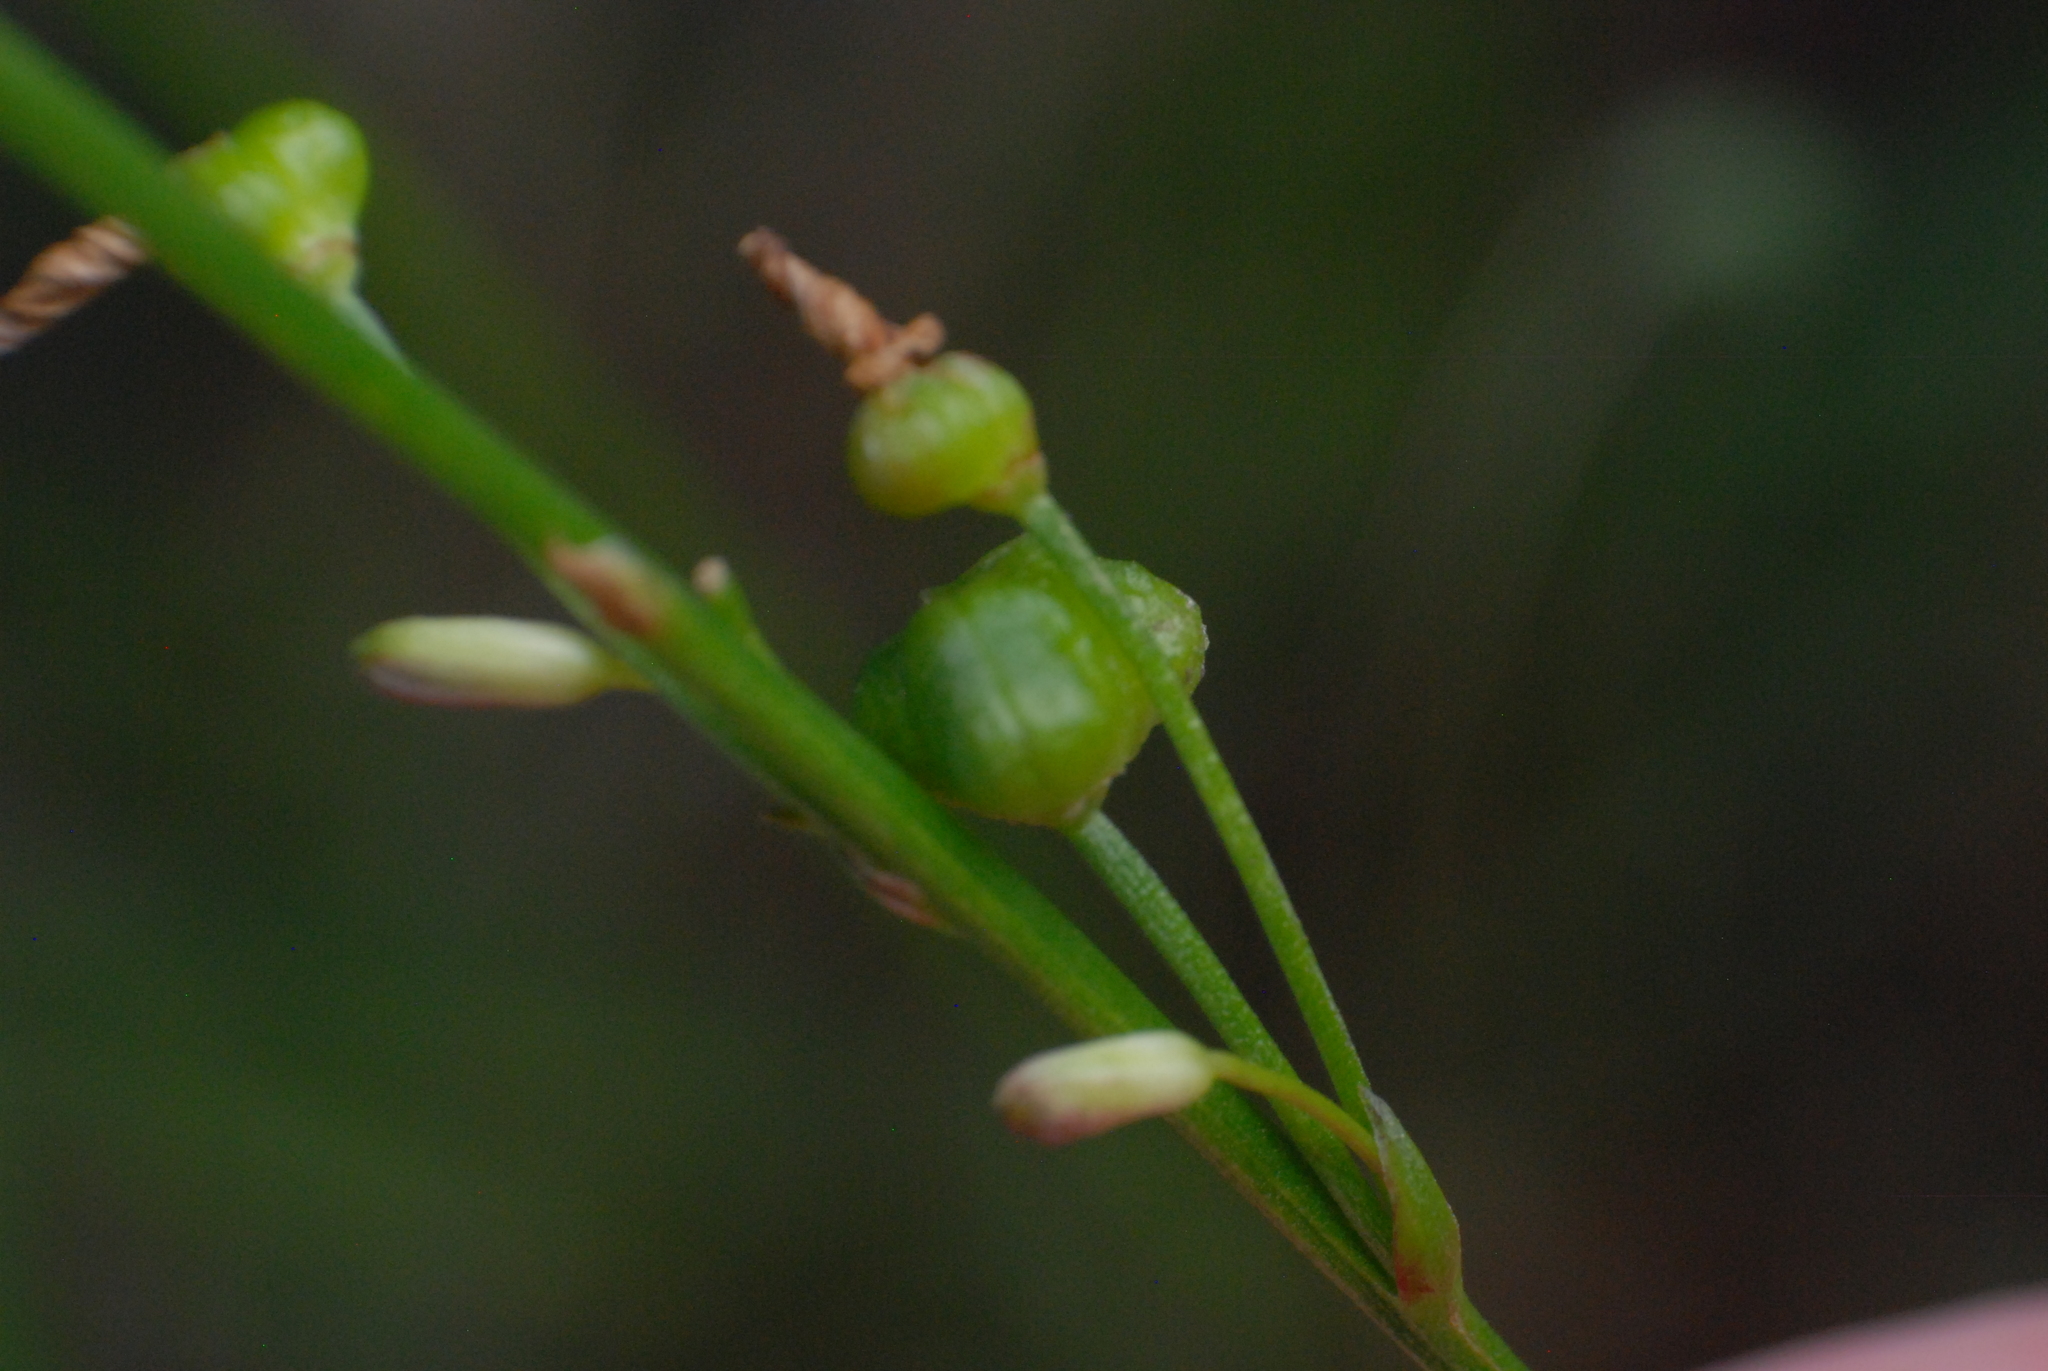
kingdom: Plantae
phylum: Tracheophyta
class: Liliopsida
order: Asparagales
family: Asphodelaceae
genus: Caesia
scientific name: Caesia parviflora
